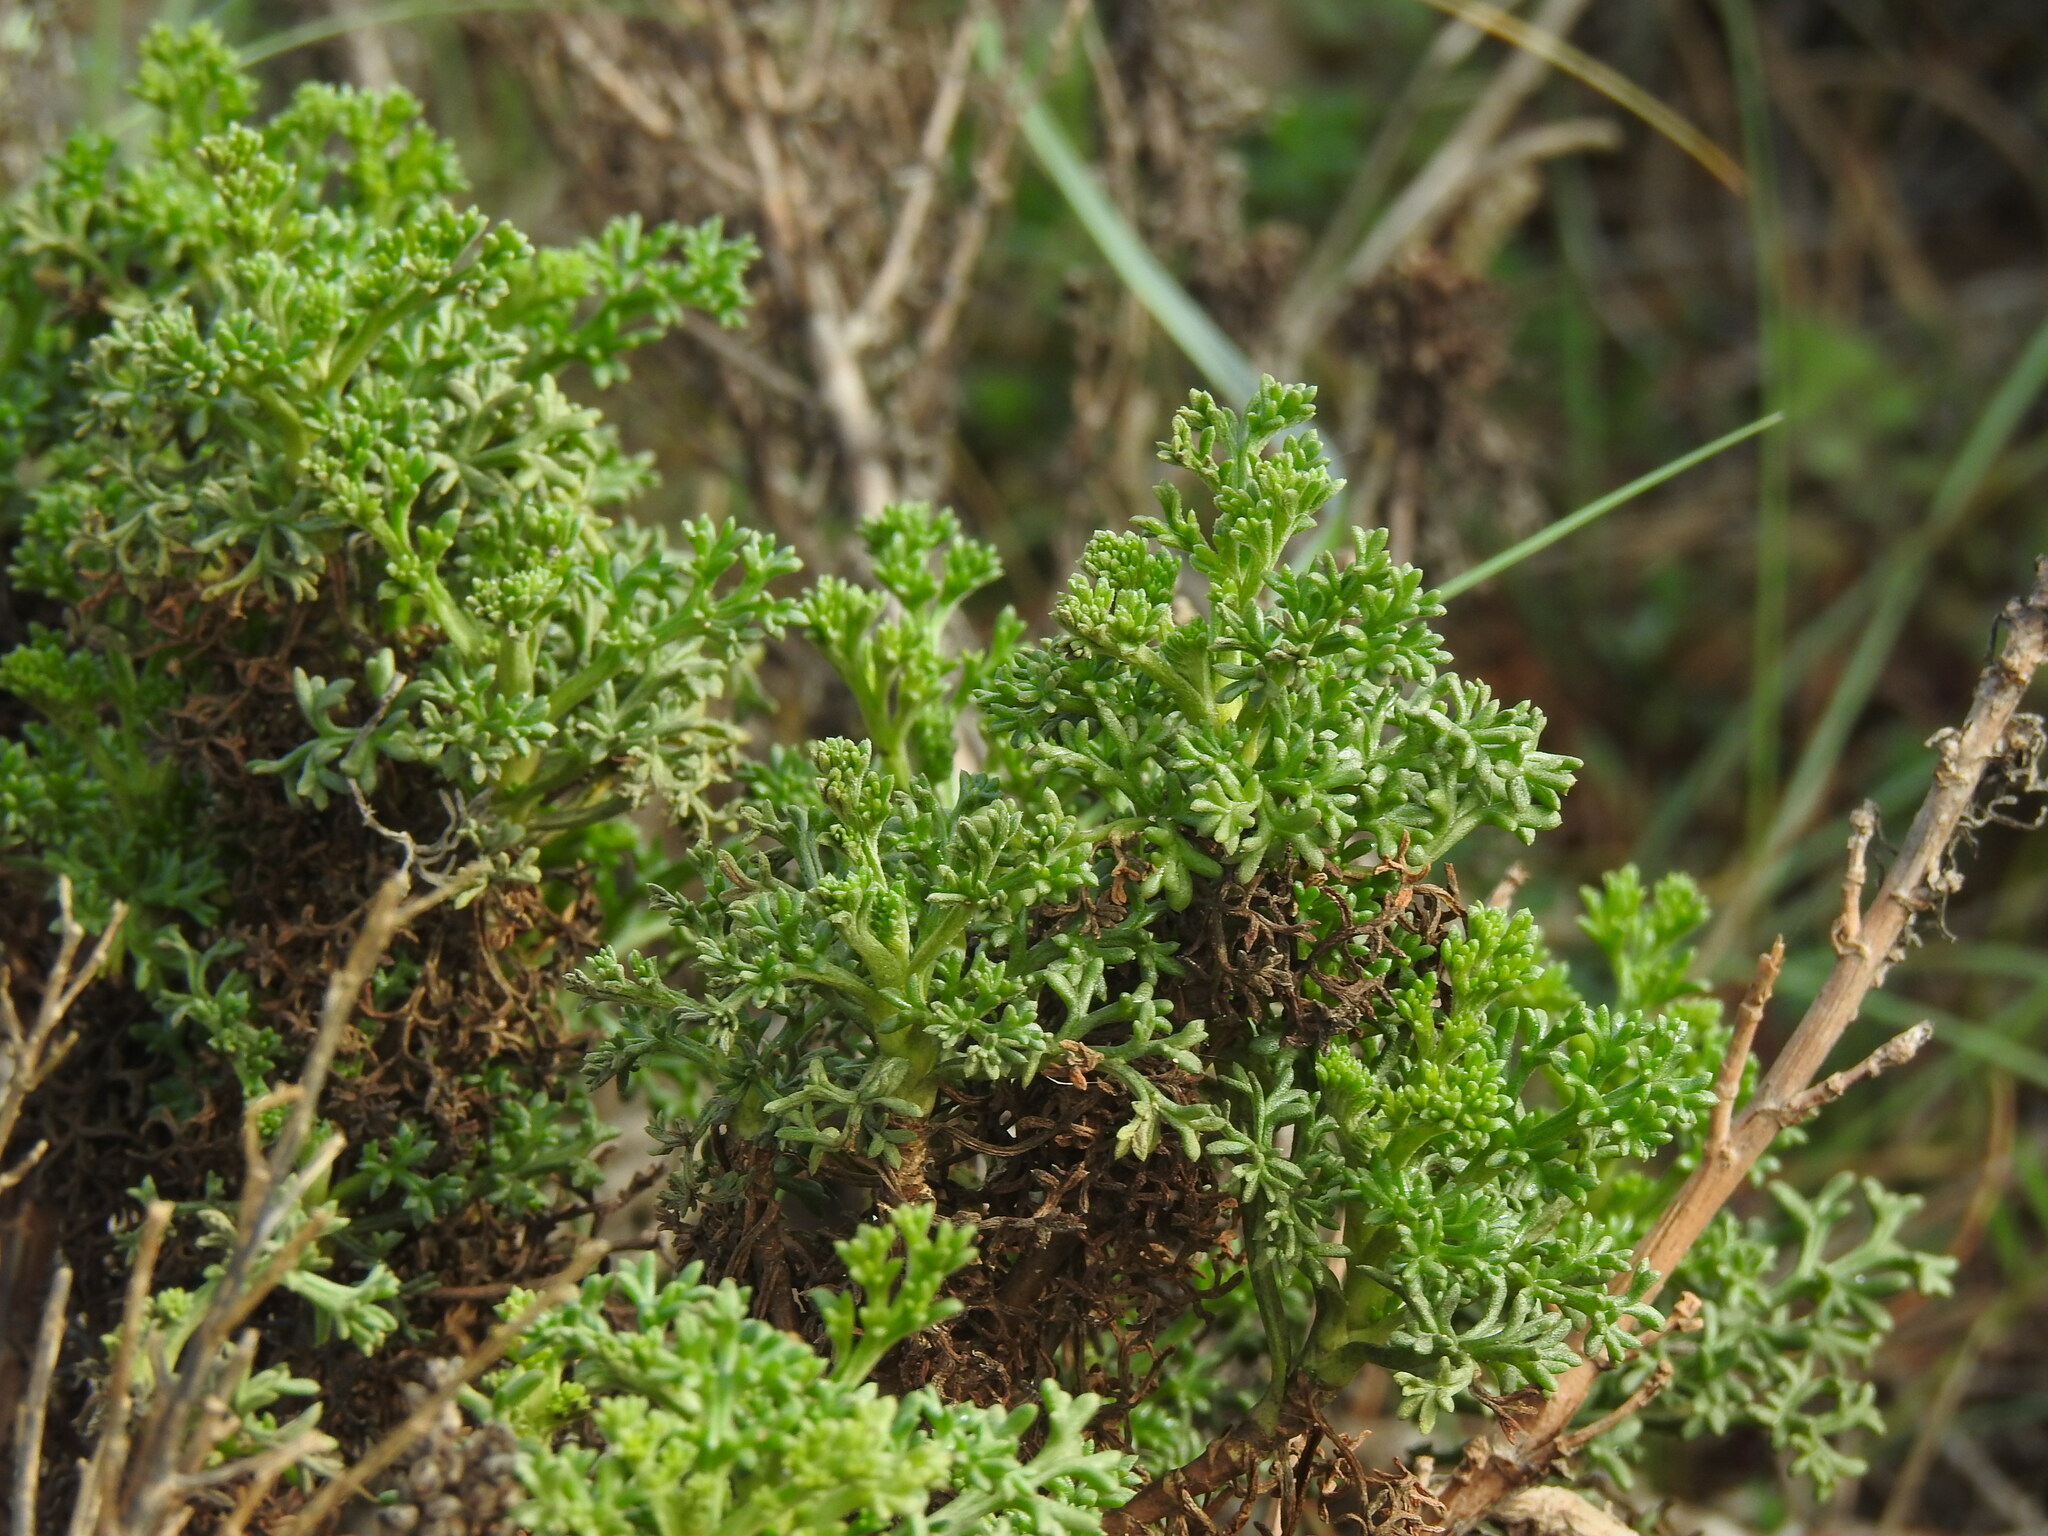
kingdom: Plantae
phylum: Tracheophyta
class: Magnoliopsida
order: Asterales
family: Asteraceae
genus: Artemisia
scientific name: Artemisia crithmifolia
